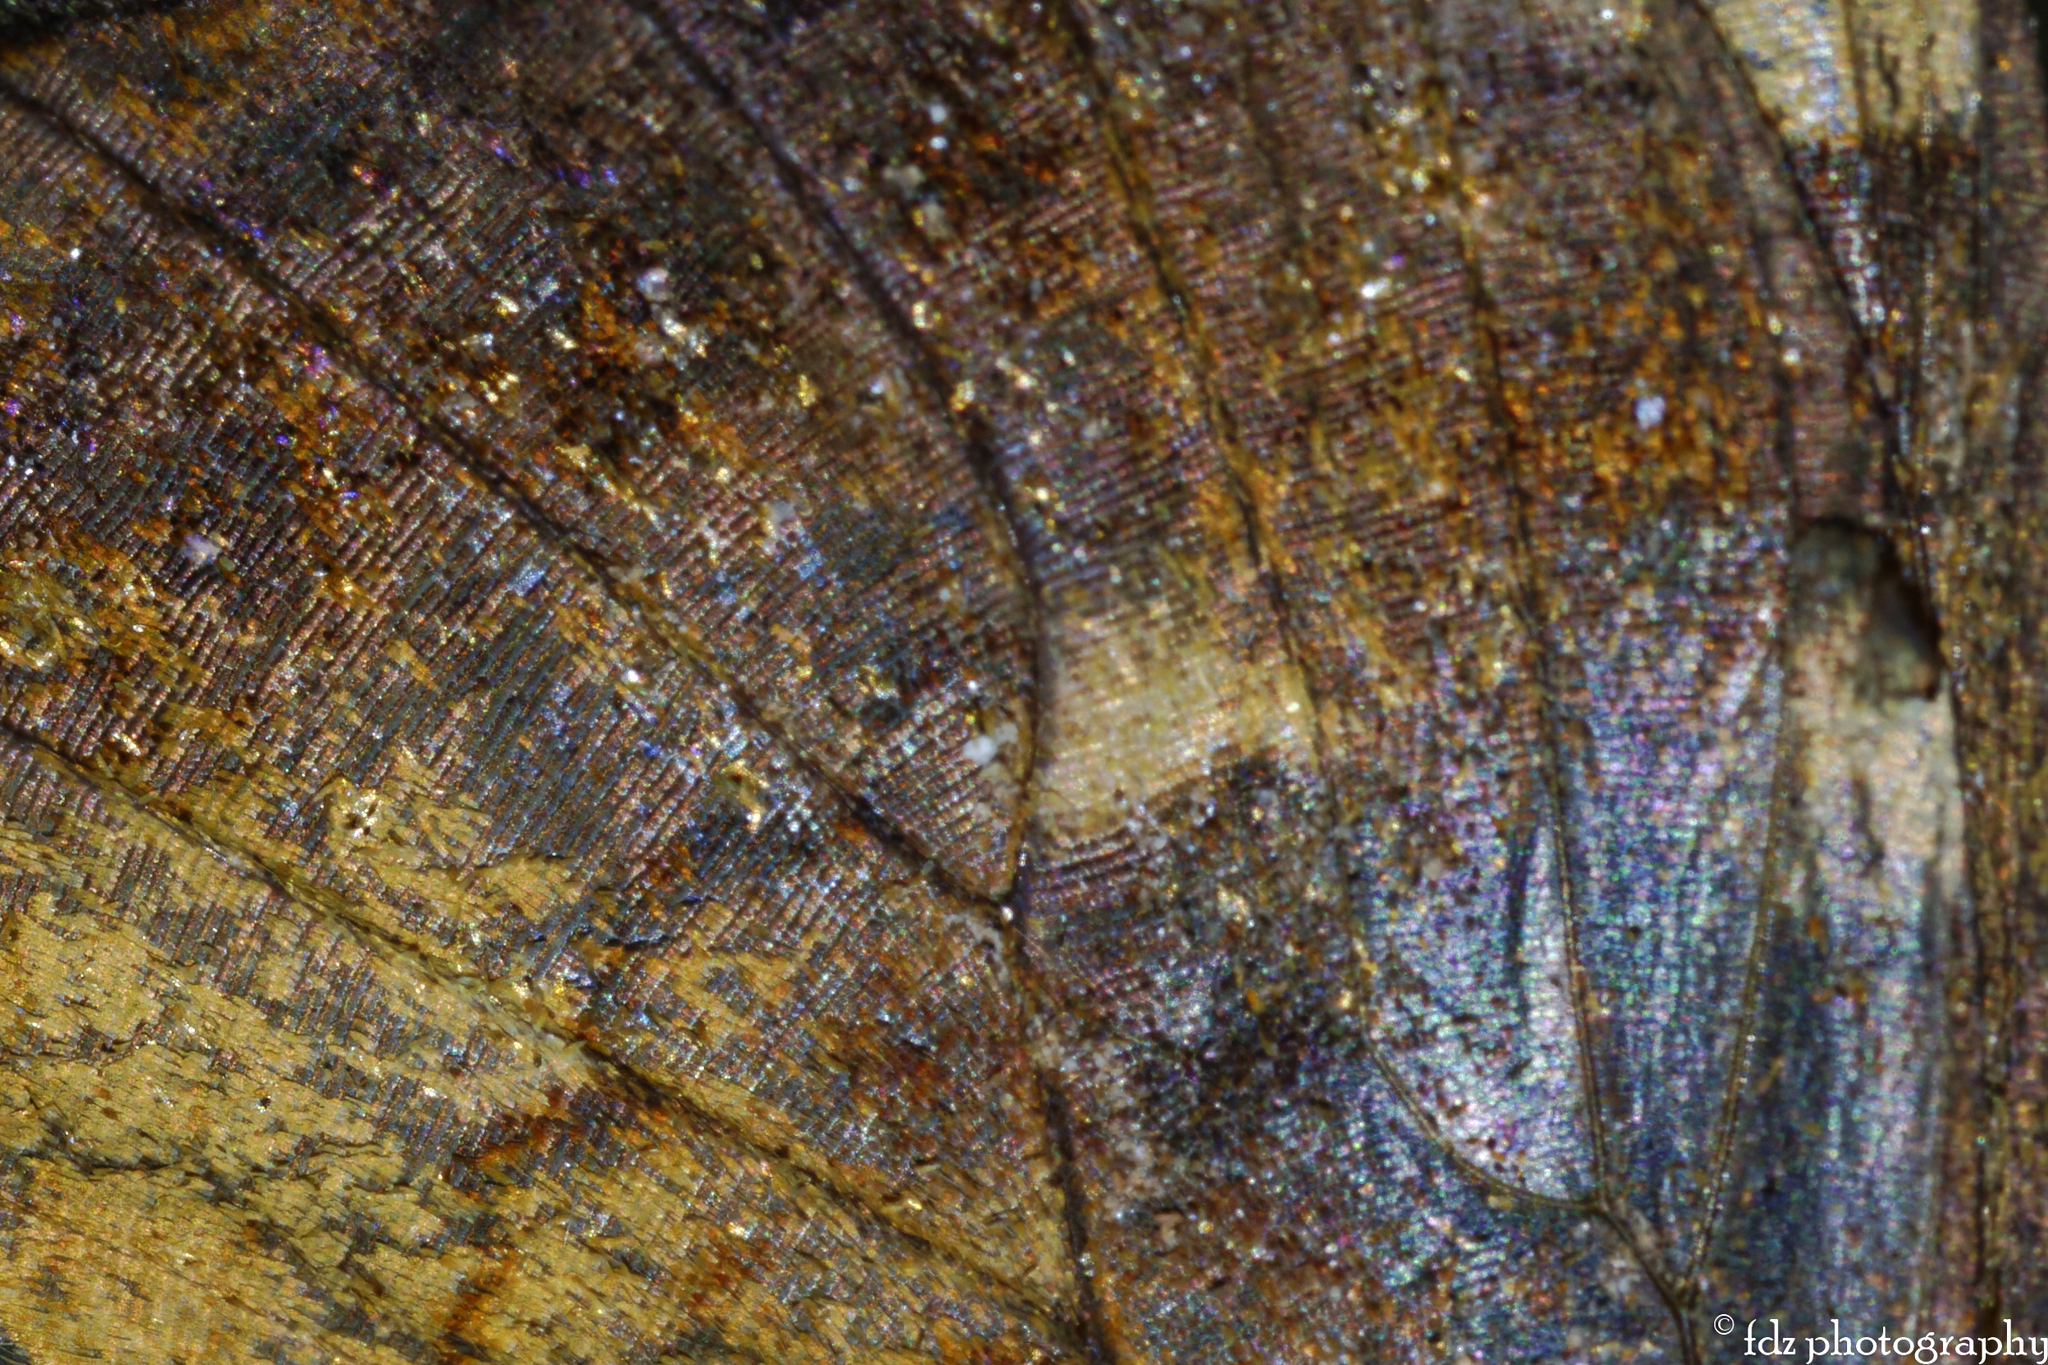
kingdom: Animalia
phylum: Arthropoda
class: Insecta
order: Lepidoptera
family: Nymphalidae
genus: Pararge
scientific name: Pararge aegeria
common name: Speckled wood
